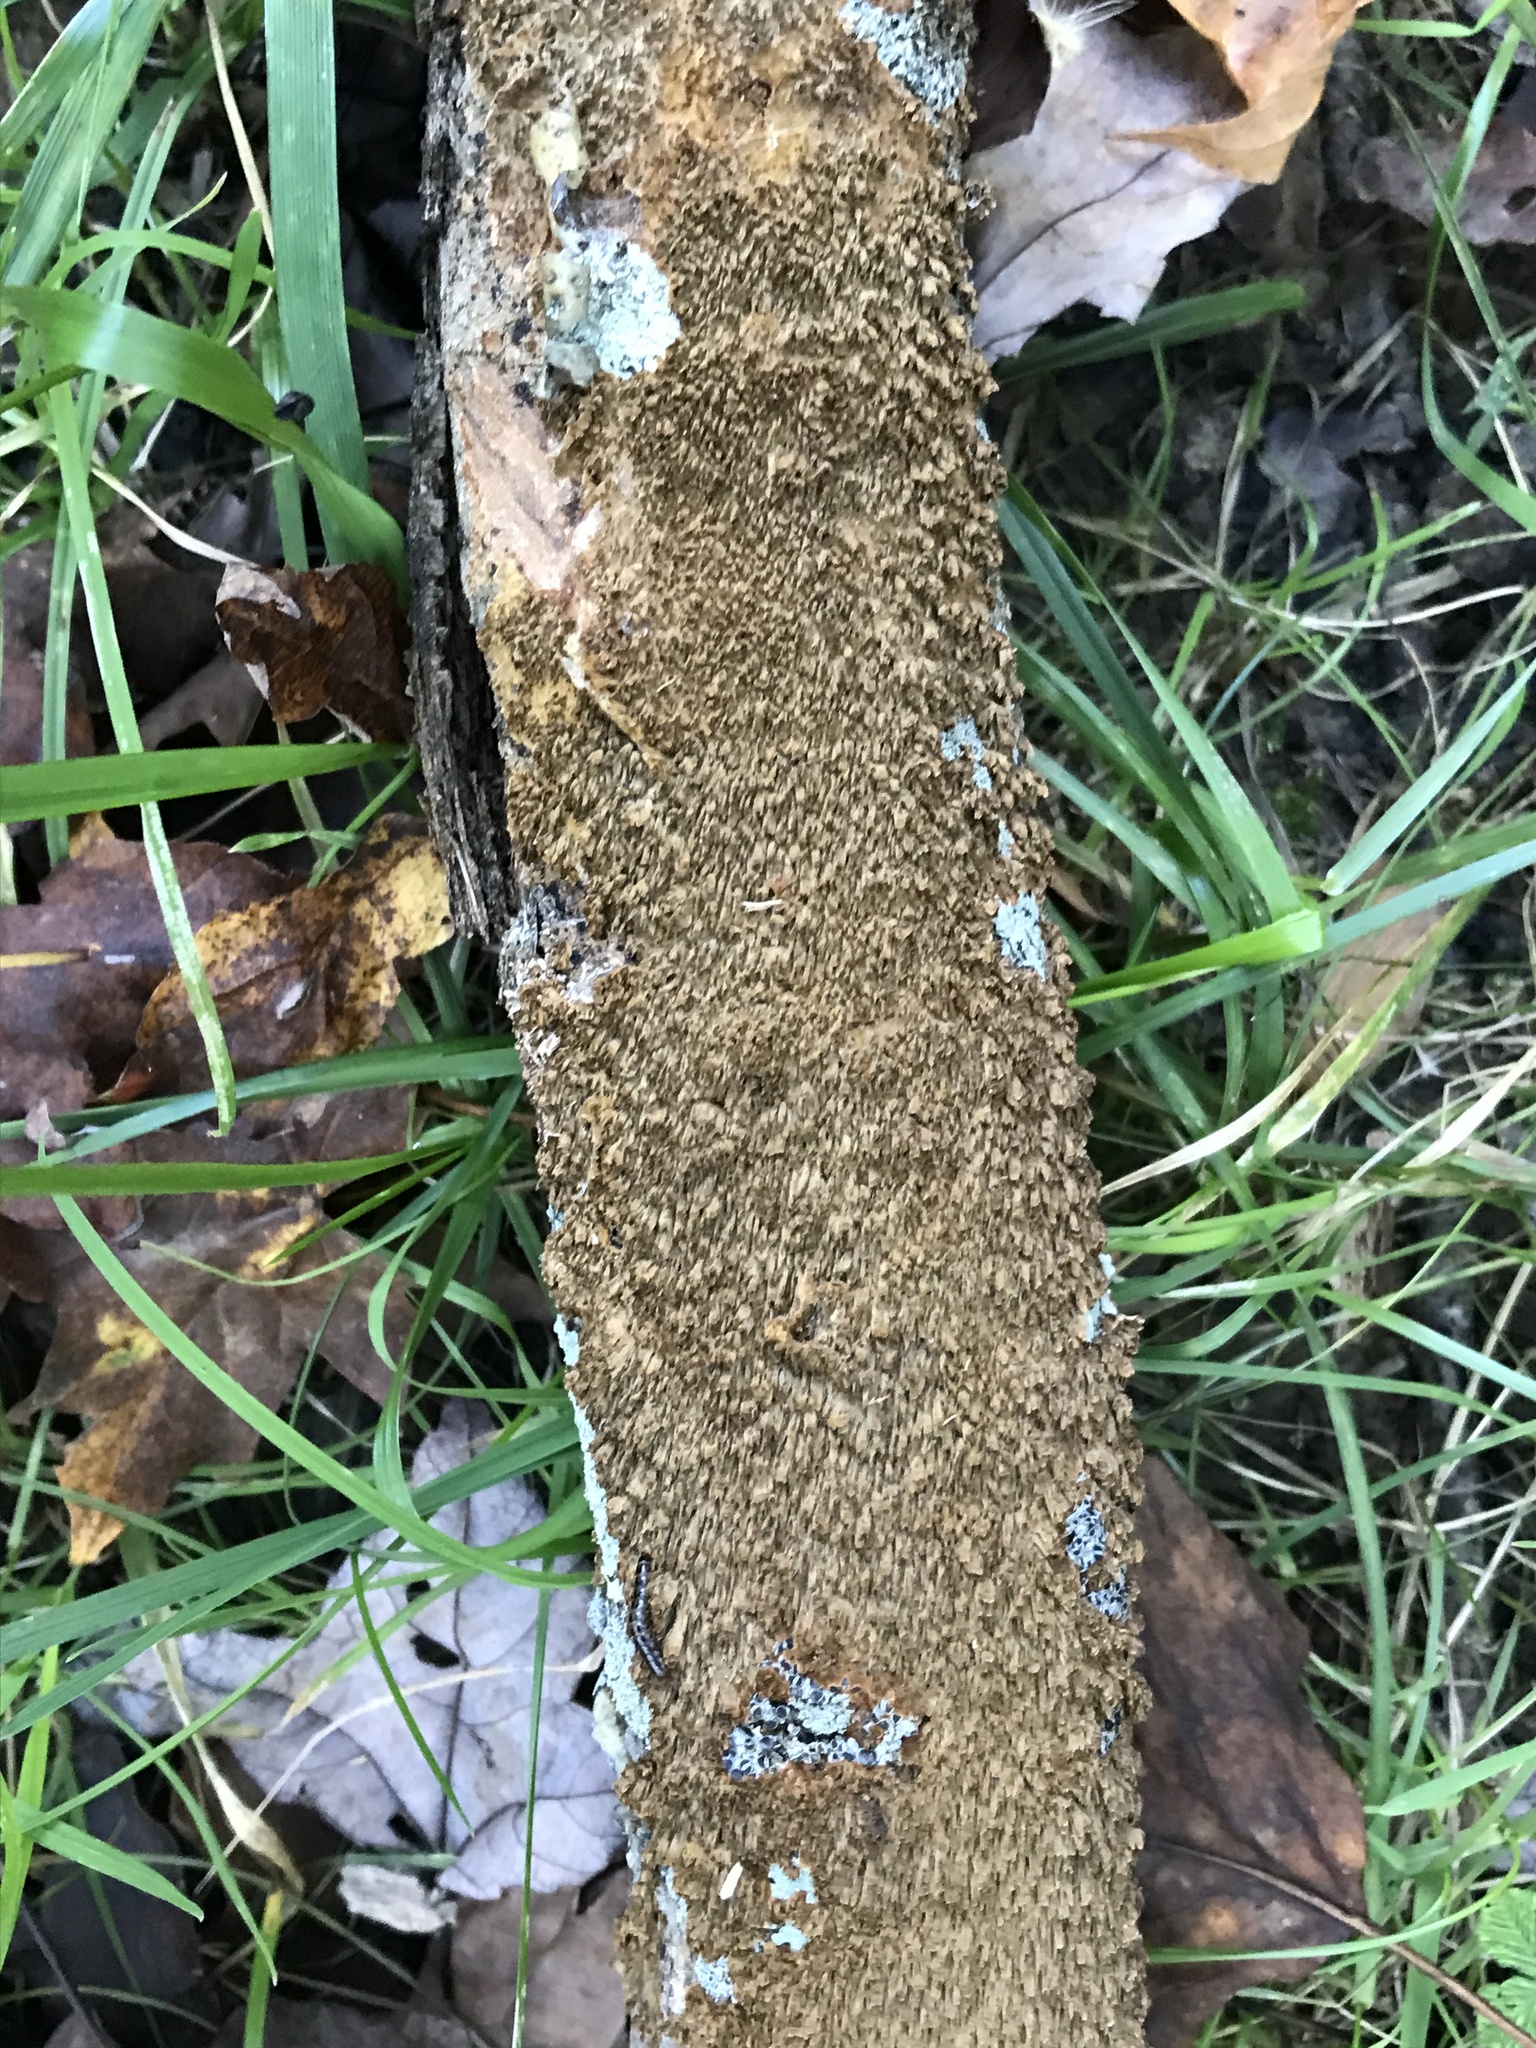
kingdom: Fungi
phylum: Basidiomycota
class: Agaricomycetes
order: Hymenochaetales
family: Hymenochaetaceae
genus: Hydnoporia
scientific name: Hydnoporia olivacea
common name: Brown-toothed crust fungus
